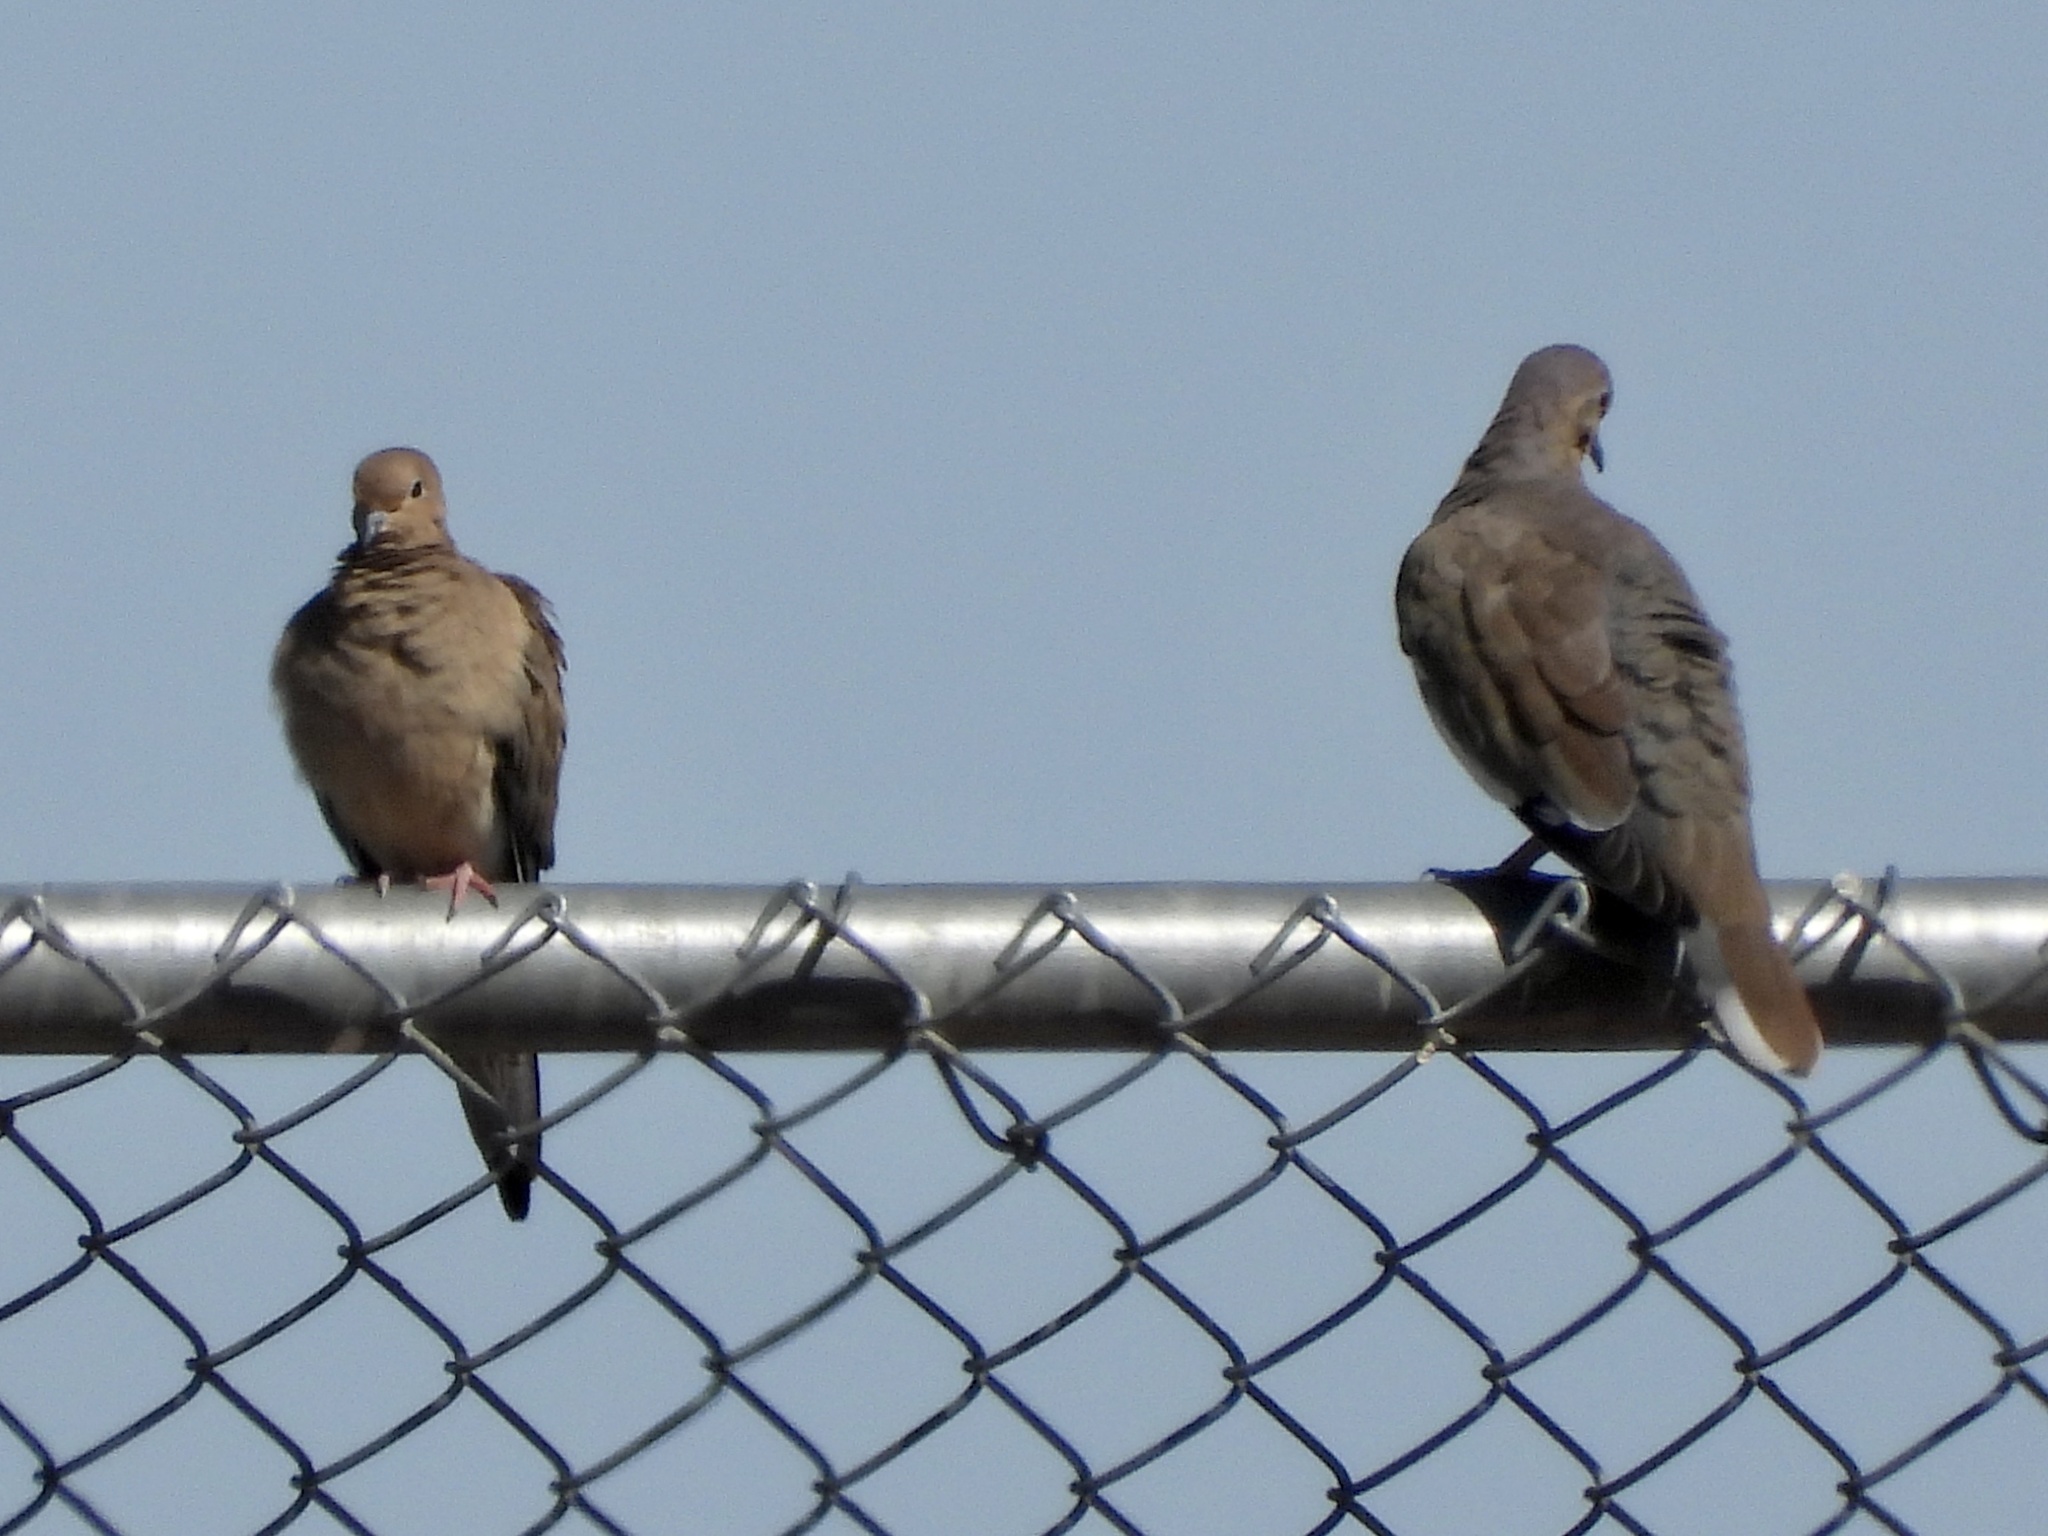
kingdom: Animalia
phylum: Chordata
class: Aves
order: Columbiformes
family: Columbidae
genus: Zenaida
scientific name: Zenaida asiatica
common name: White-winged dove
